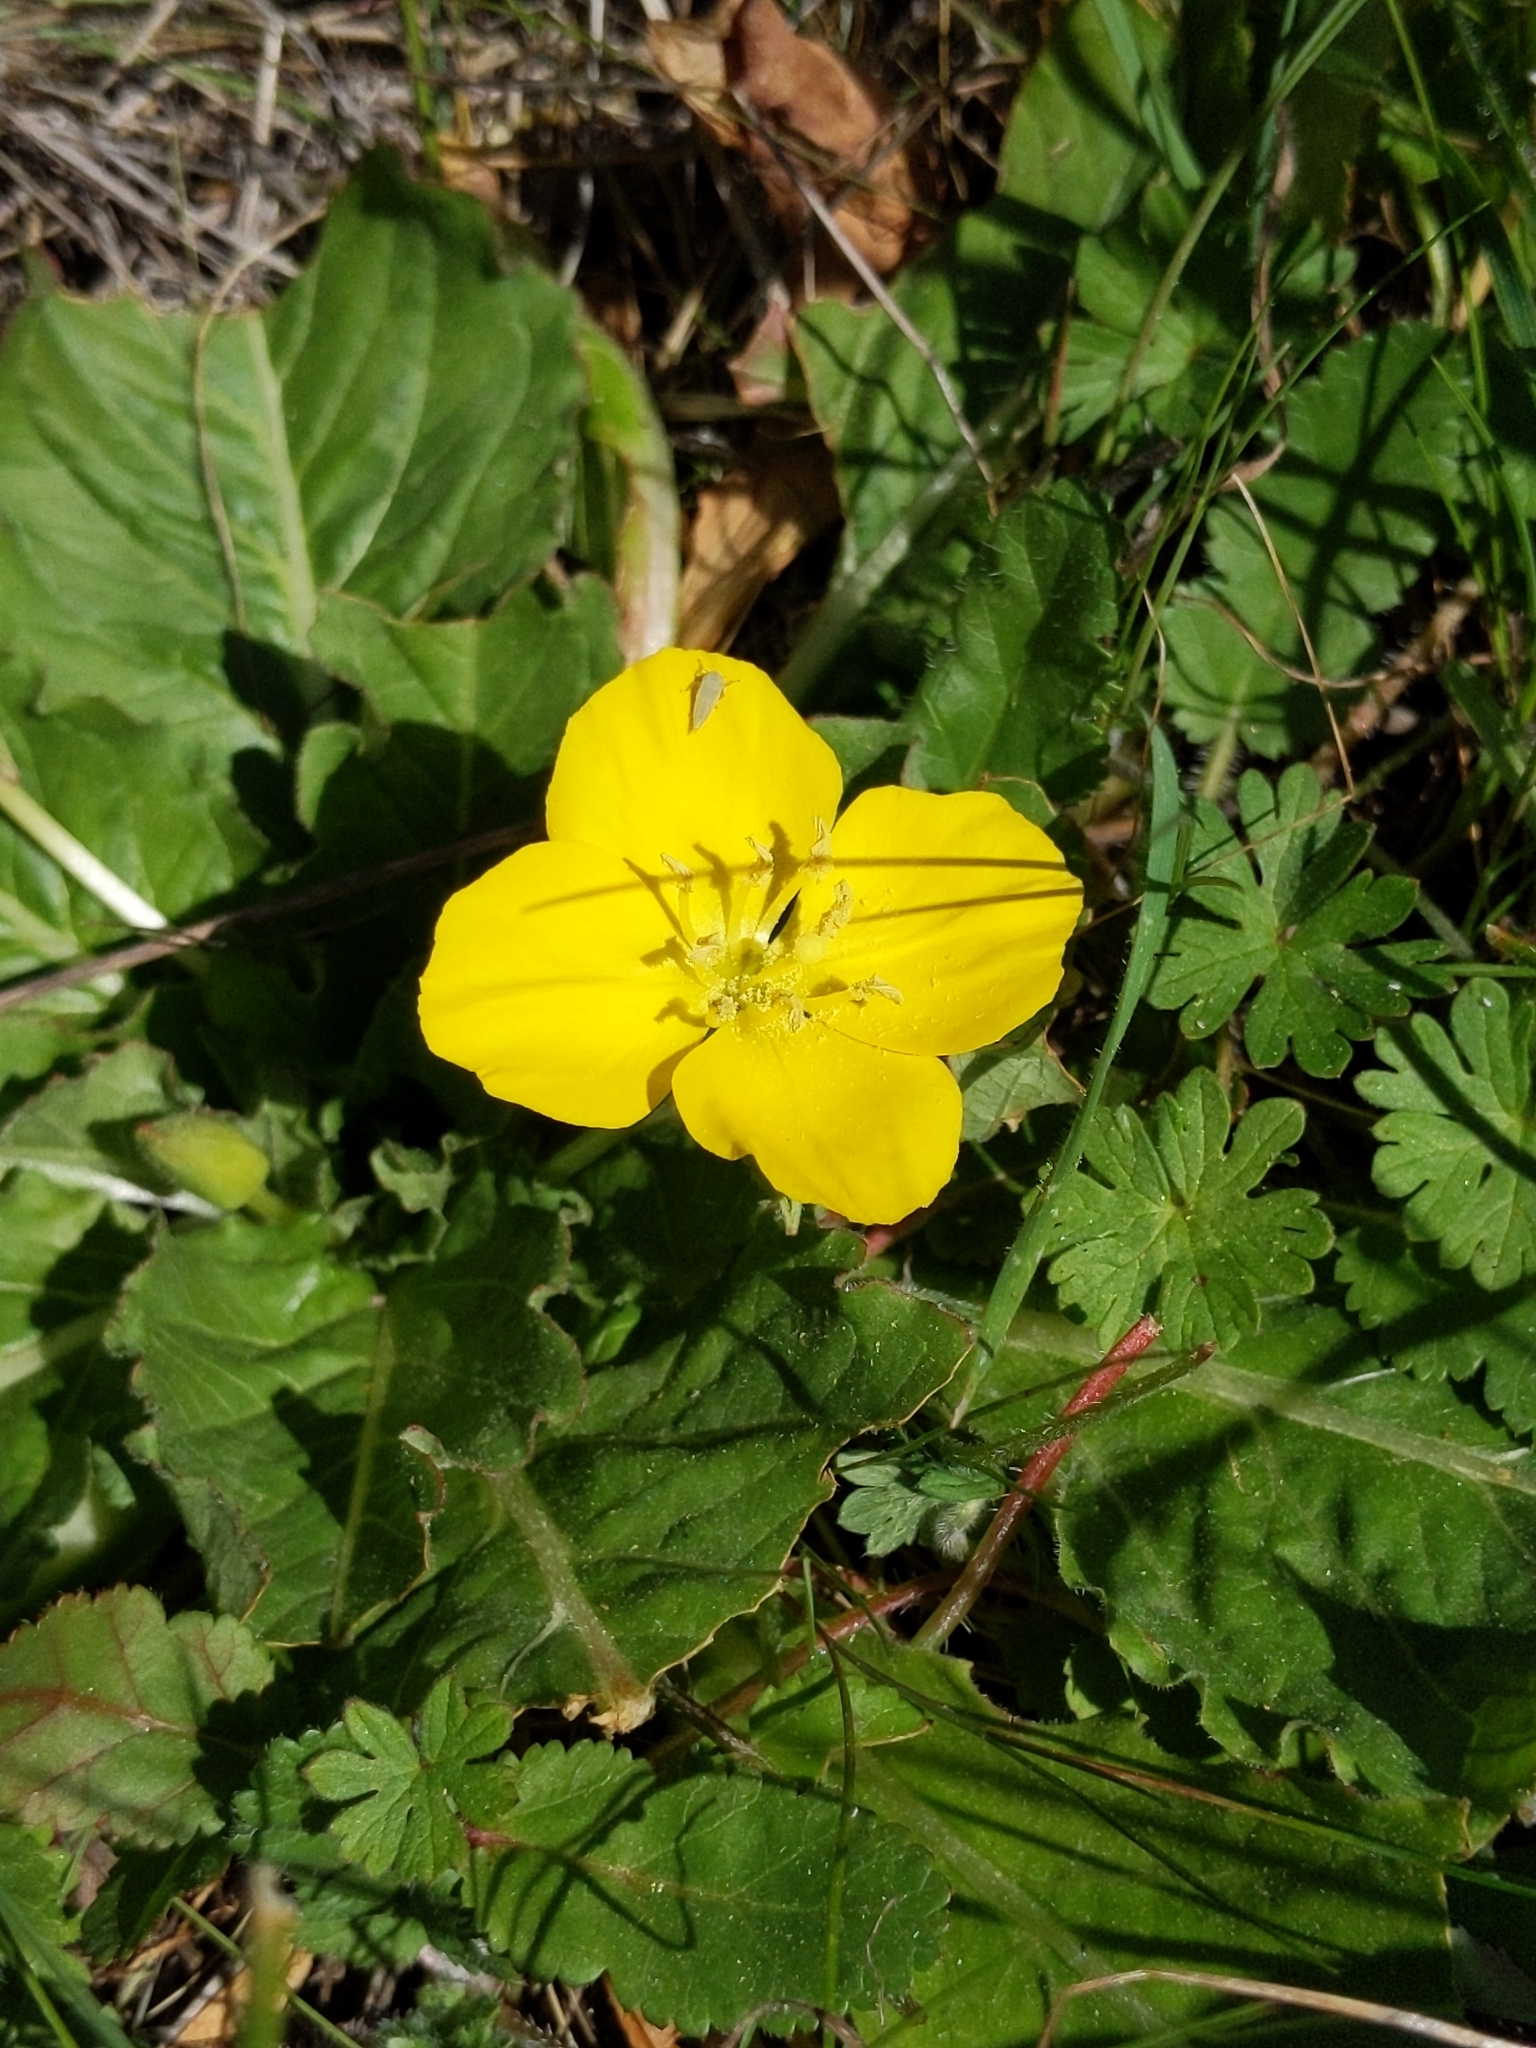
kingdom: Plantae
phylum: Tracheophyta
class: Magnoliopsida
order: Myrtales
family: Onagraceae
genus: Taraxia
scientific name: Taraxia ovata
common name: Goldeneggs
